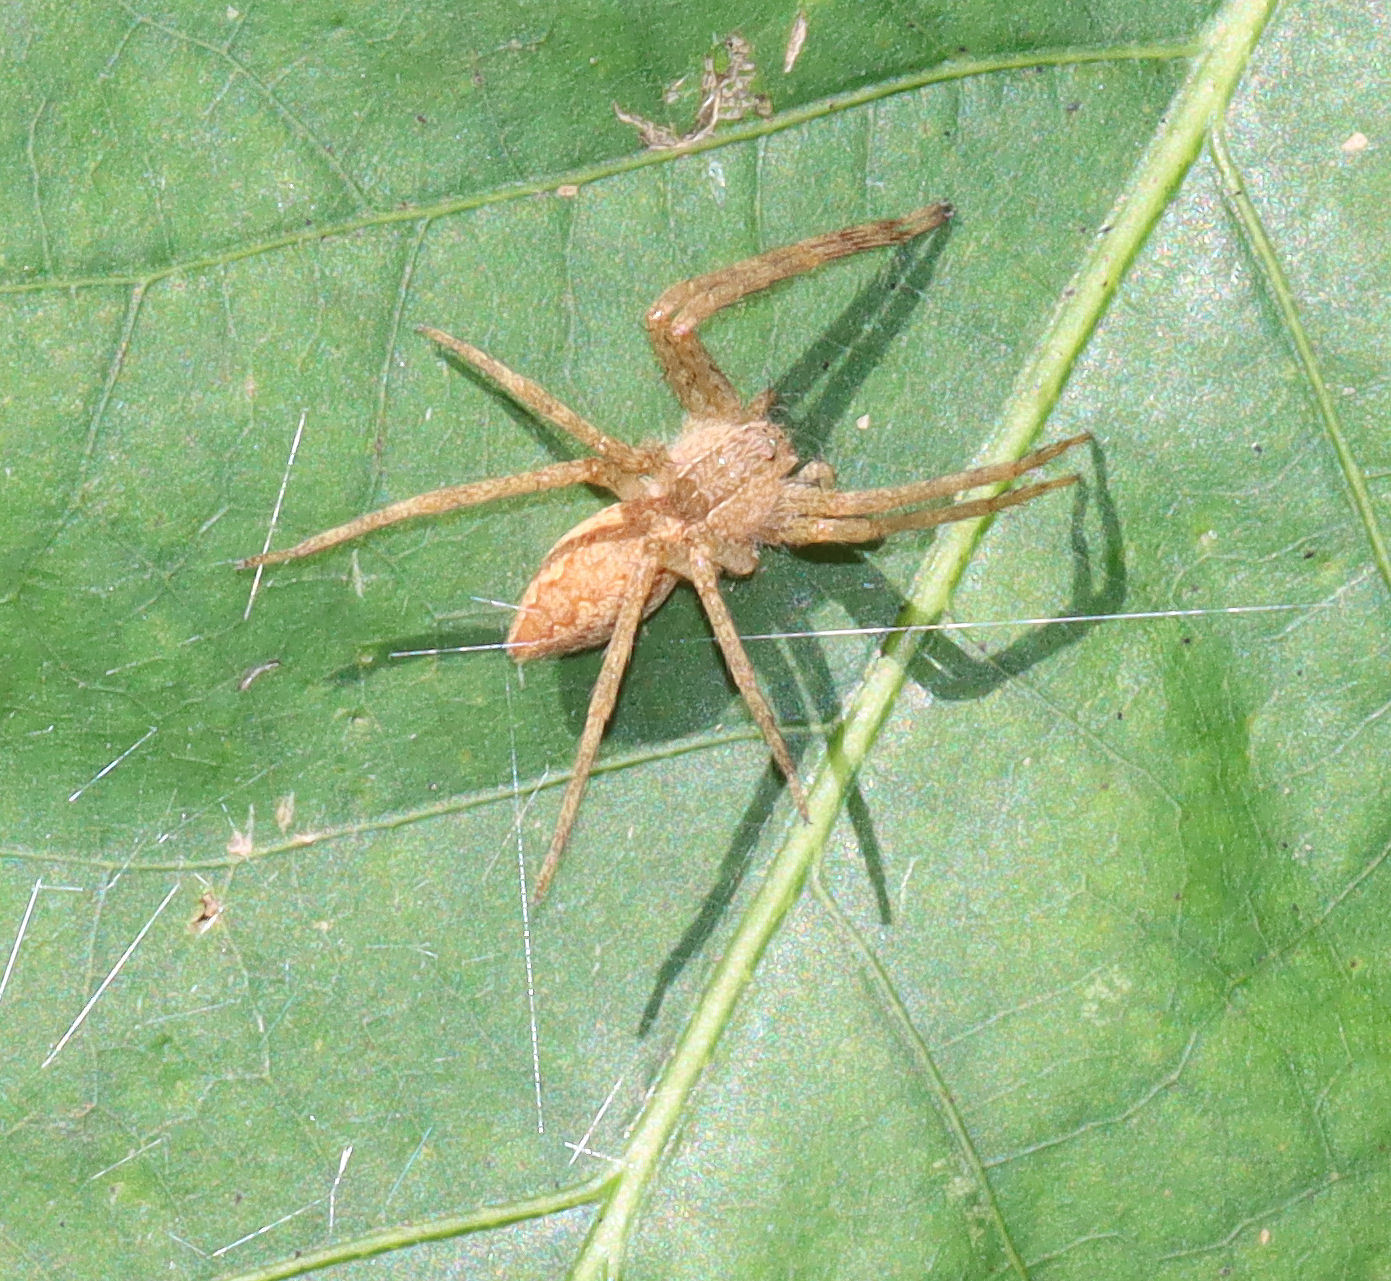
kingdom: Animalia
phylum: Arthropoda
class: Arachnida
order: Araneae
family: Pisauridae
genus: Pisaurina
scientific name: Pisaurina mira
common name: American nursery web spider
